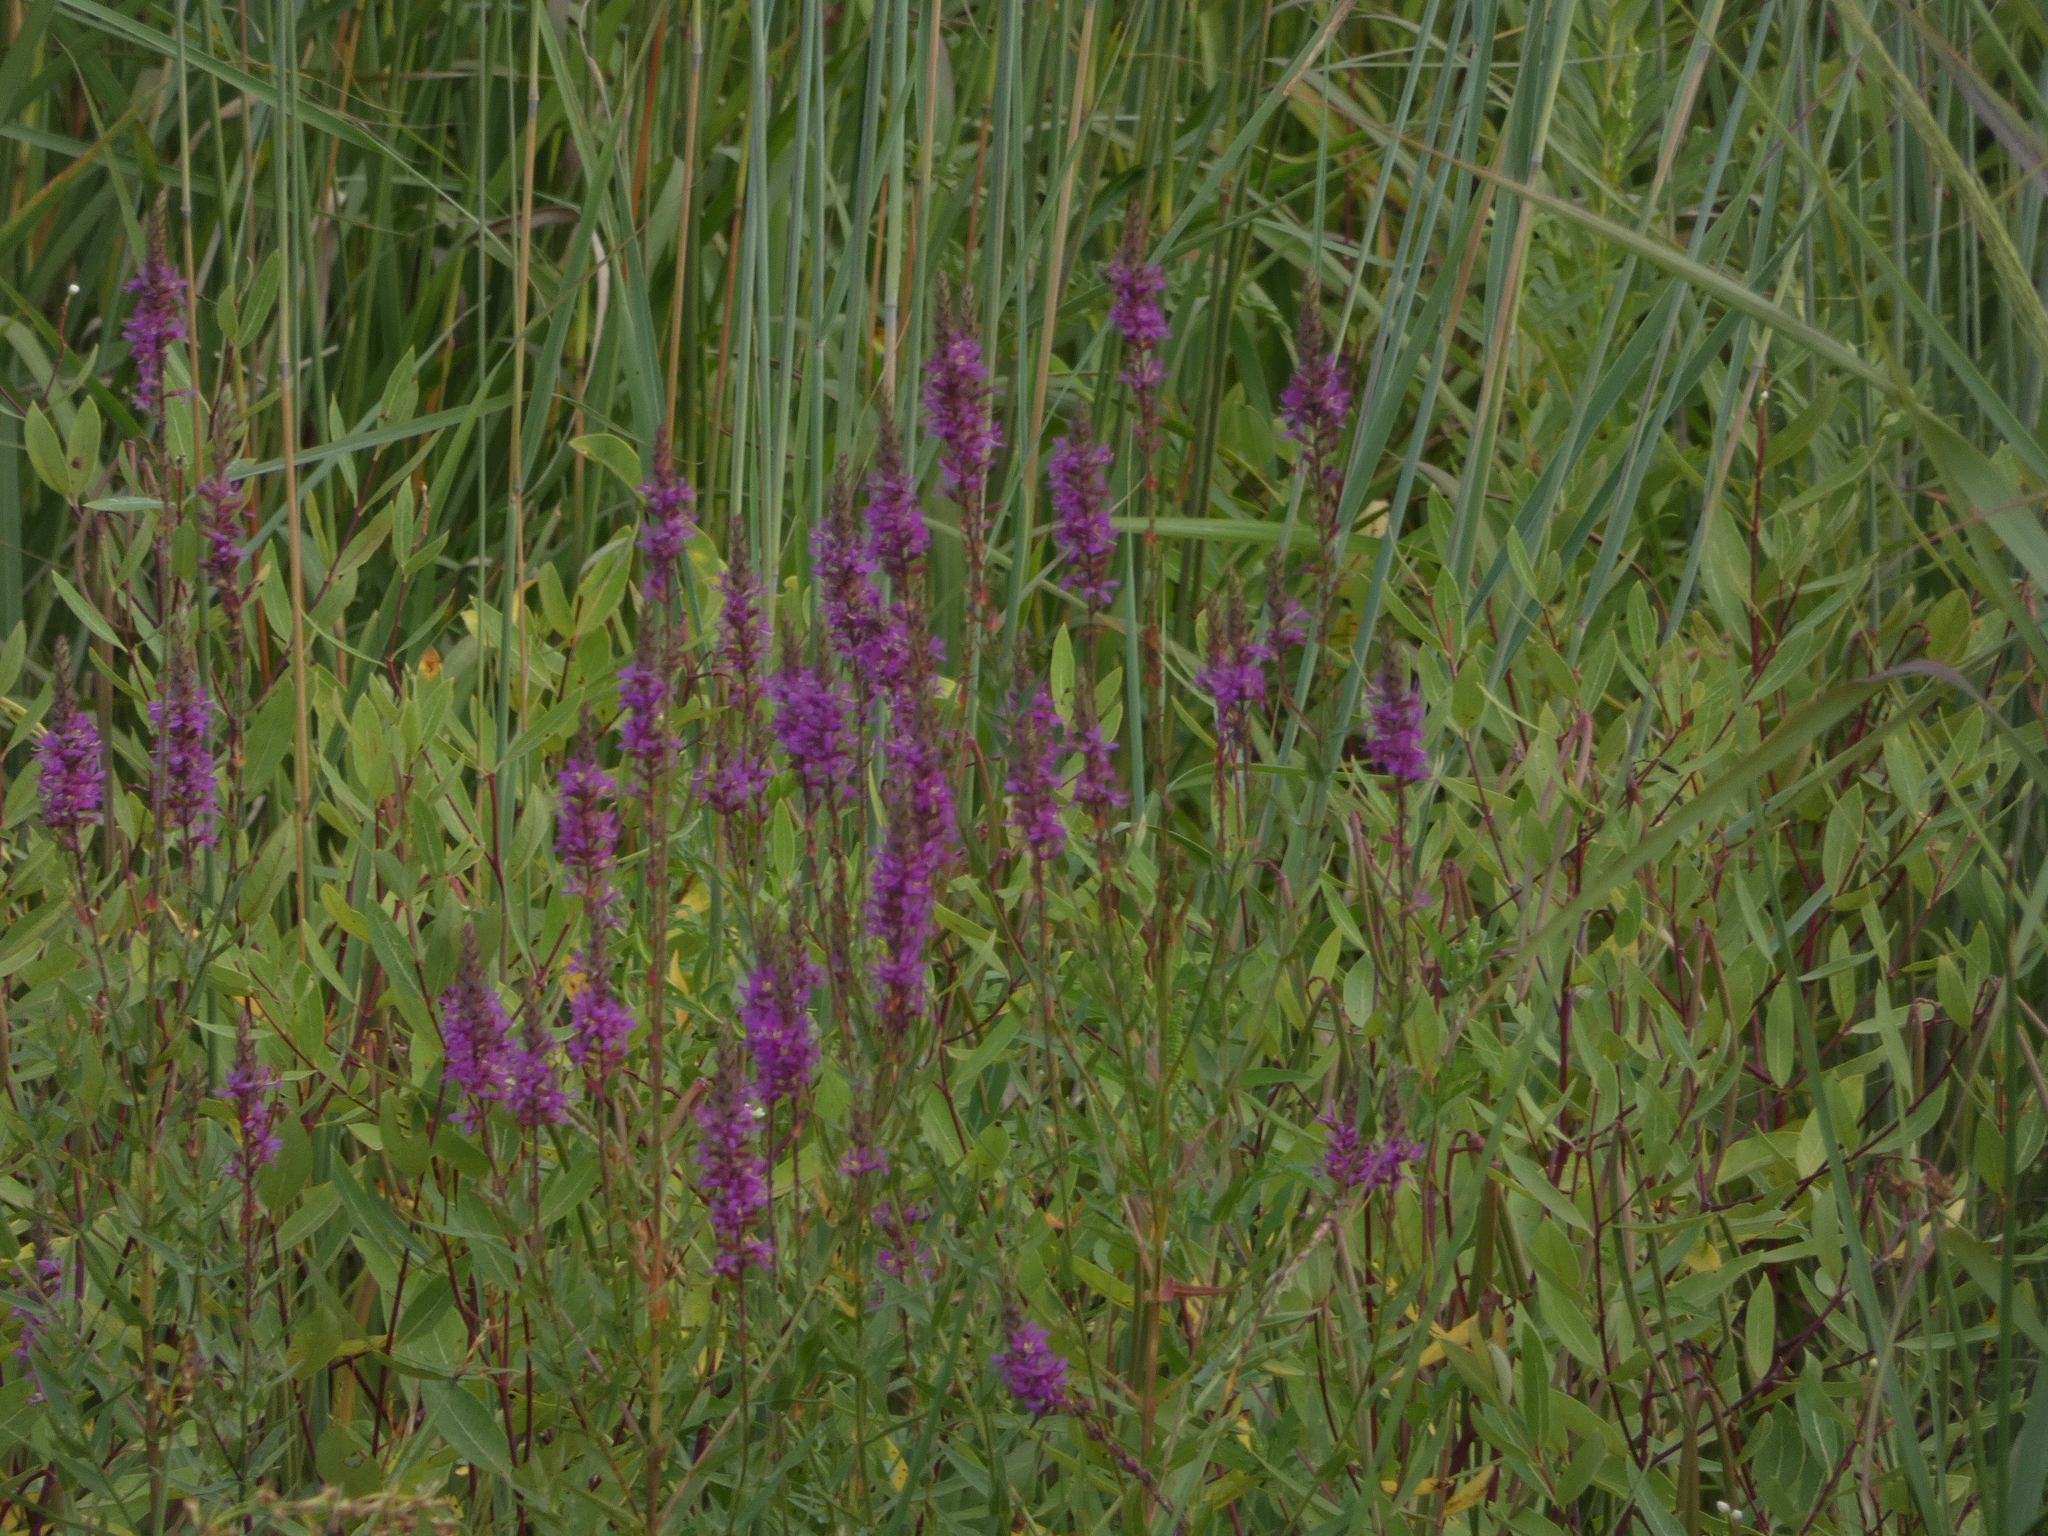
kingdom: Plantae
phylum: Tracheophyta
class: Magnoliopsida
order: Myrtales
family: Lythraceae
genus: Lythrum
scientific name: Lythrum salicaria
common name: Purple loosestrife
